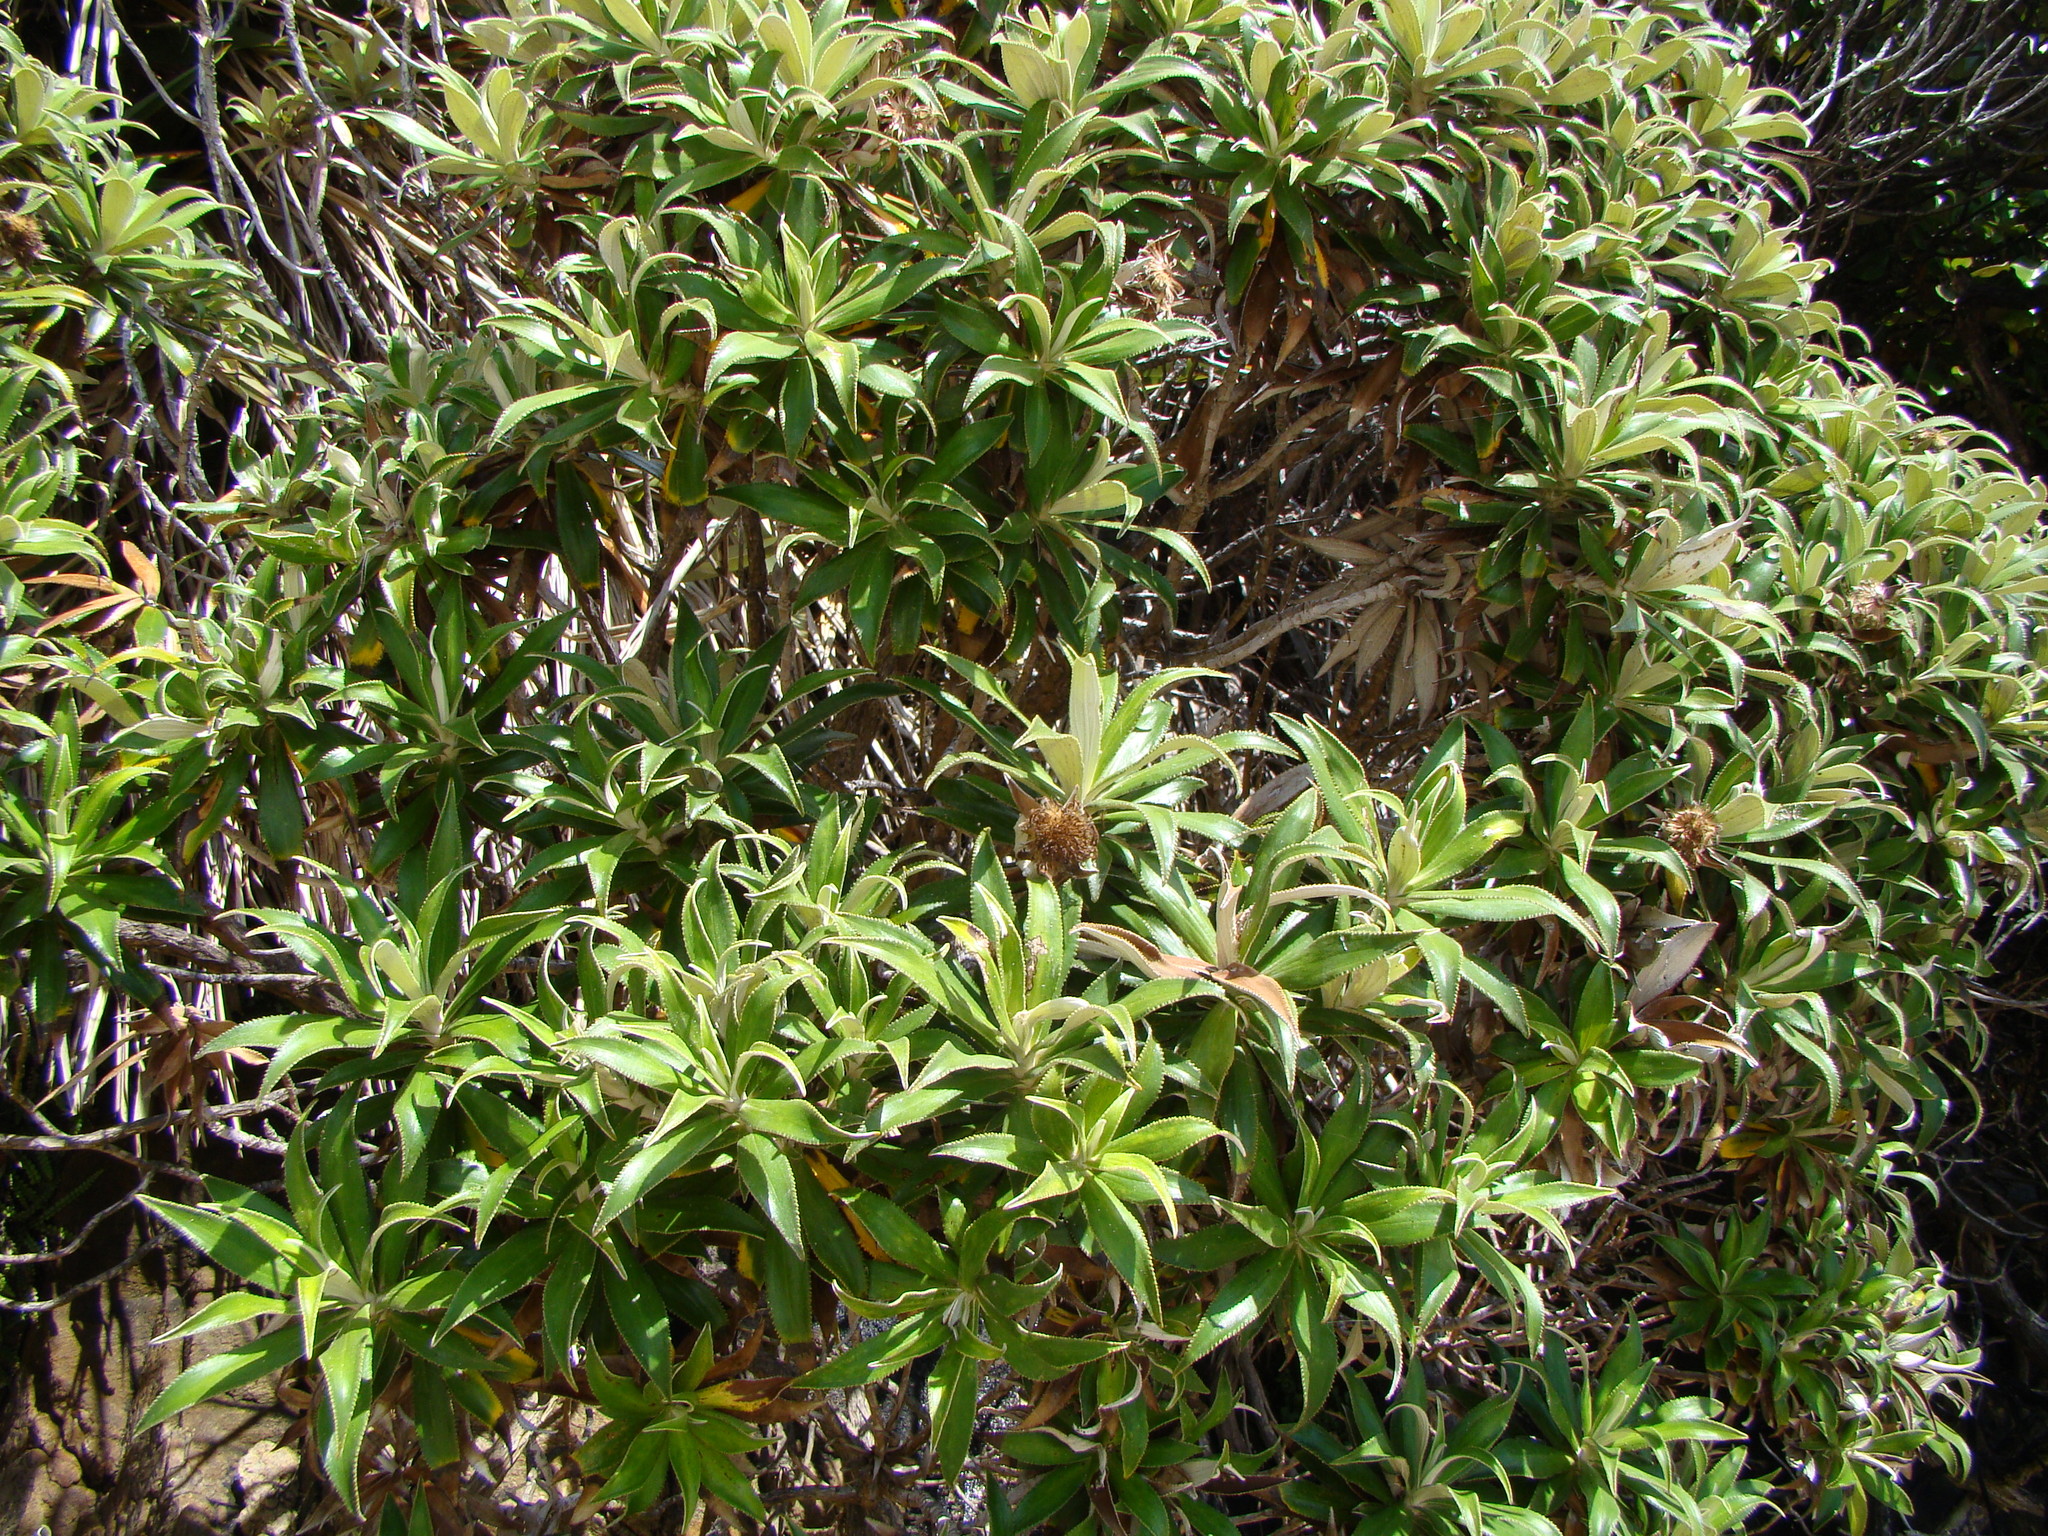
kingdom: Plantae
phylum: Tracheophyta
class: Magnoliopsida
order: Asterales
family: Asteraceae
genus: Macrolearia
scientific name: Macrolearia angustifolia
